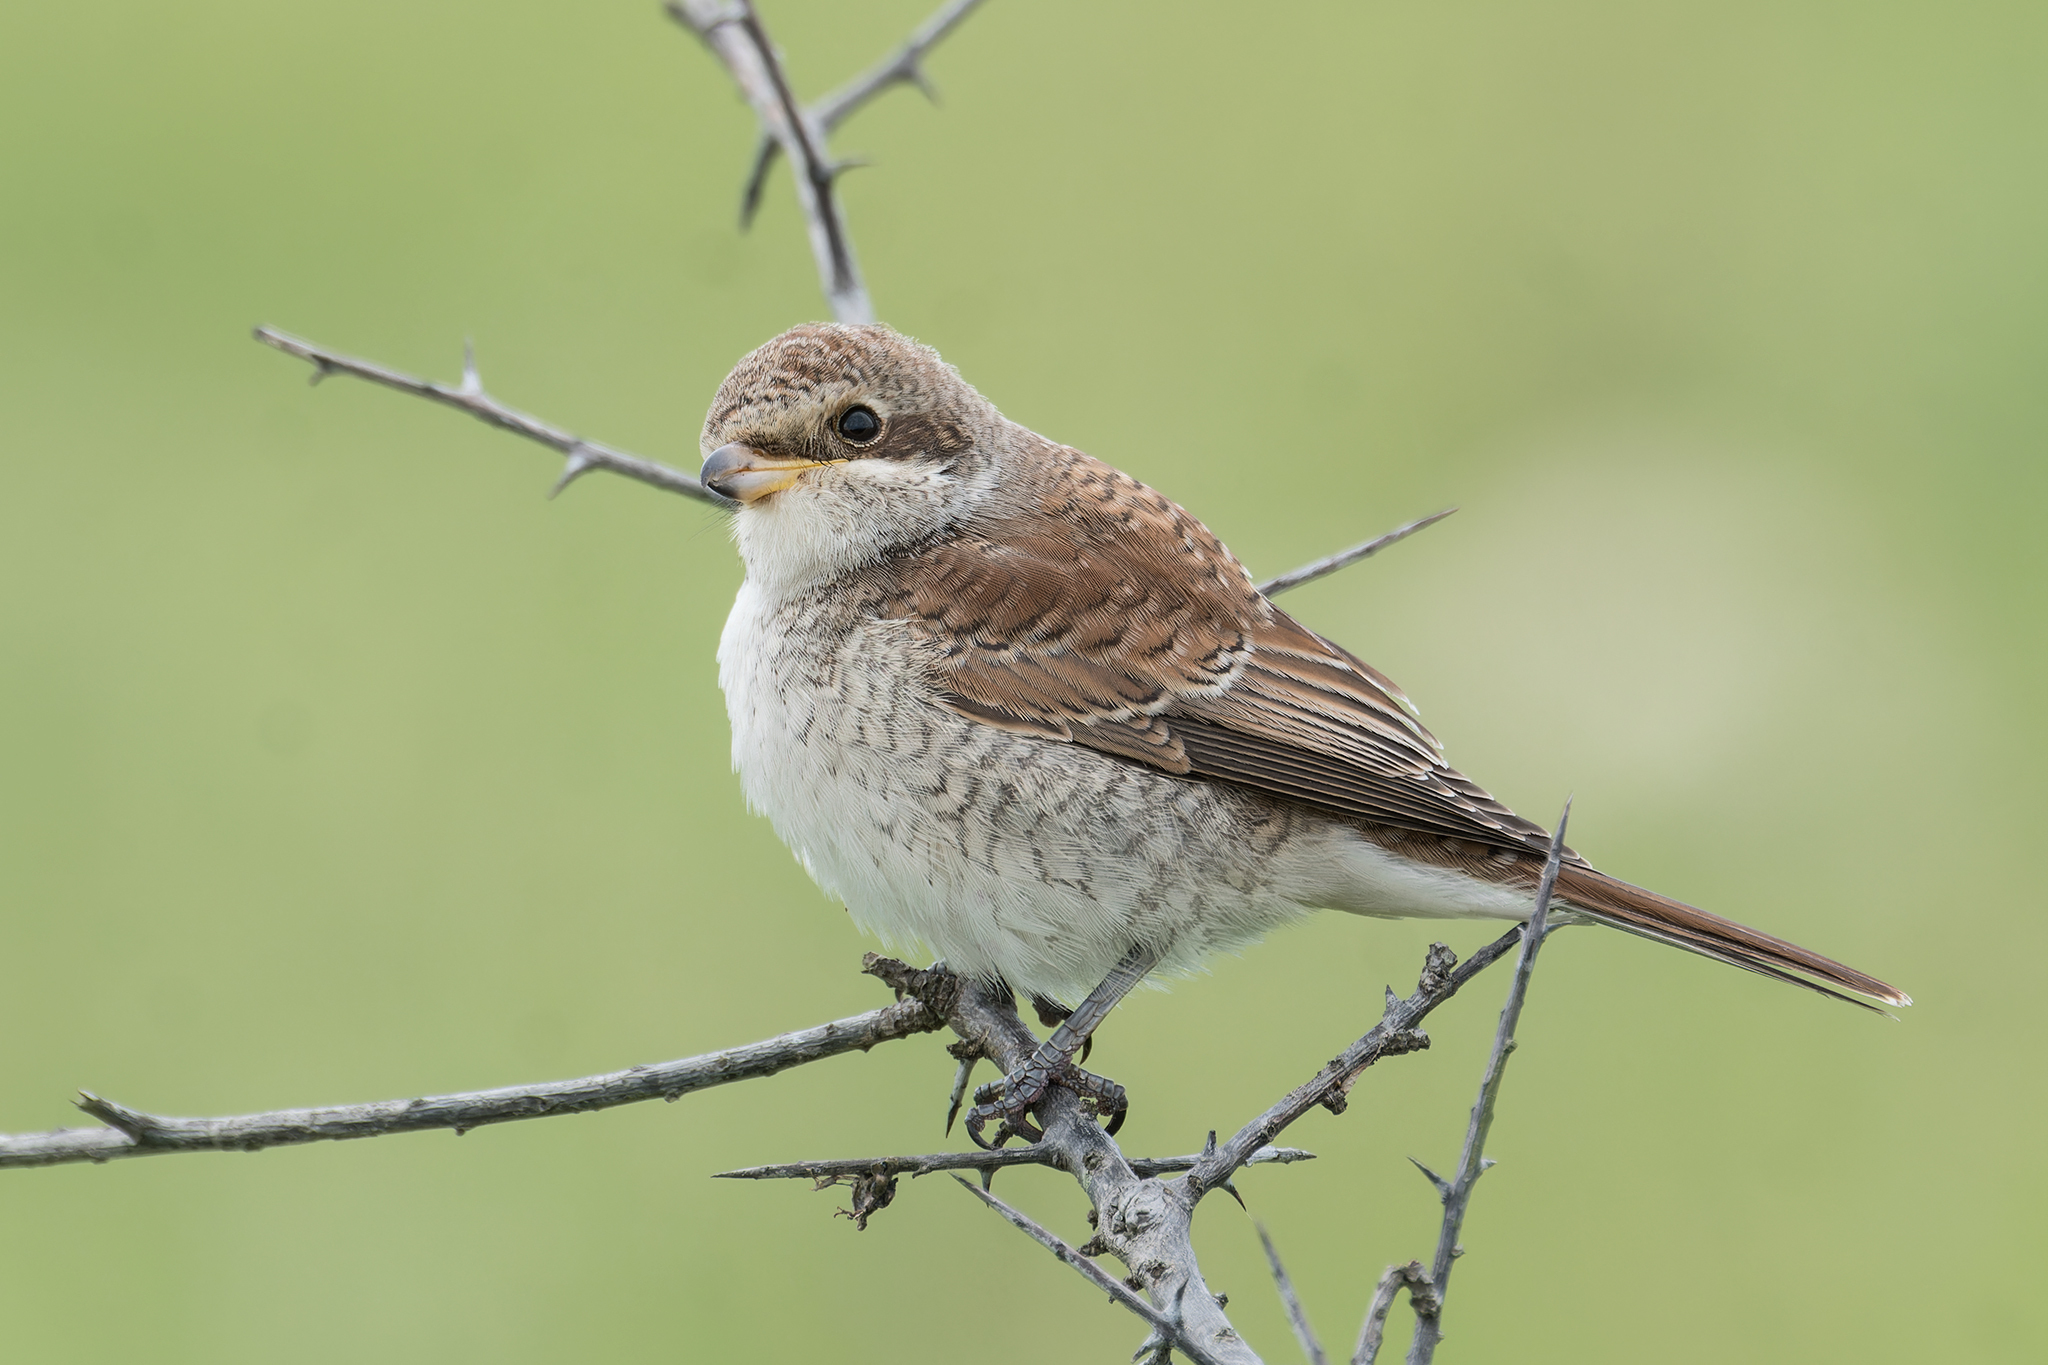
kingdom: Animalia
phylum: Chordata
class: Aves
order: Passeriformes
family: Laniidae
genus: Lanius
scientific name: Lanius collurio
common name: Red-backed shrike
